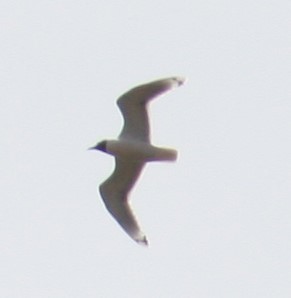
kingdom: Animalia
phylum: Chordata
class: Aves
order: Charadriiformes
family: Laridae
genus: Leucophaeus
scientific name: Leucophaeus pipixcan
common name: Franklin's gull
